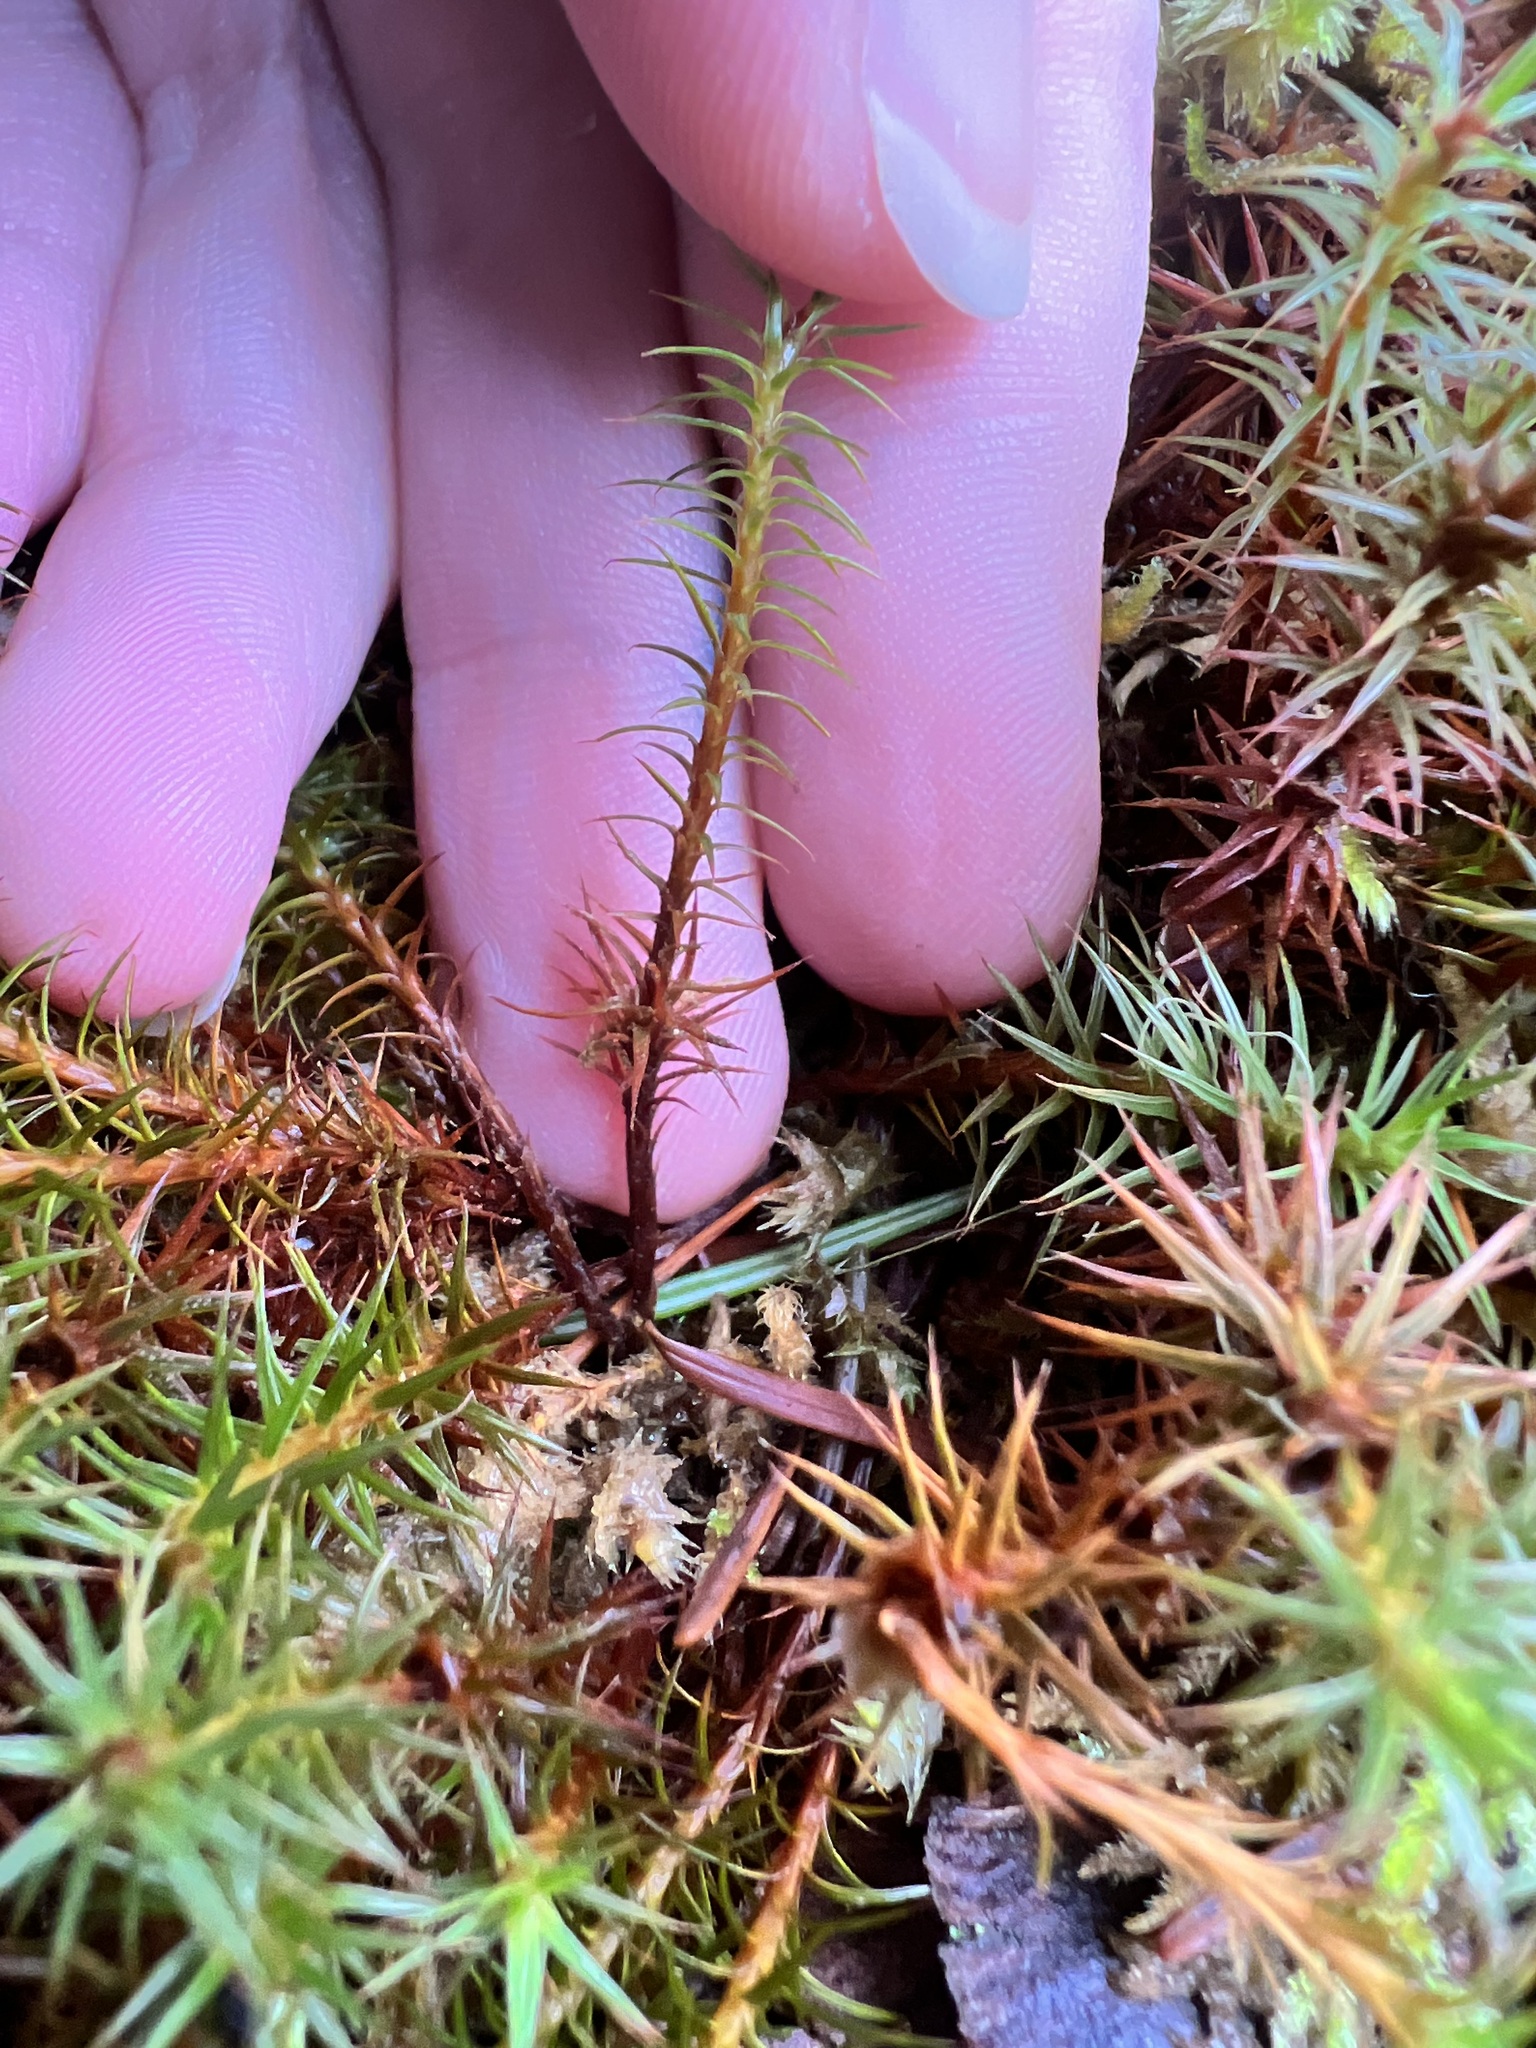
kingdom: Plantae
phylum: Bryophyta
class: Polytrichopsida
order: Polytrichales
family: Polytrichaceae
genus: Polytrichum
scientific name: Polytrichum juniperinum
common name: Juniper haircap moss
